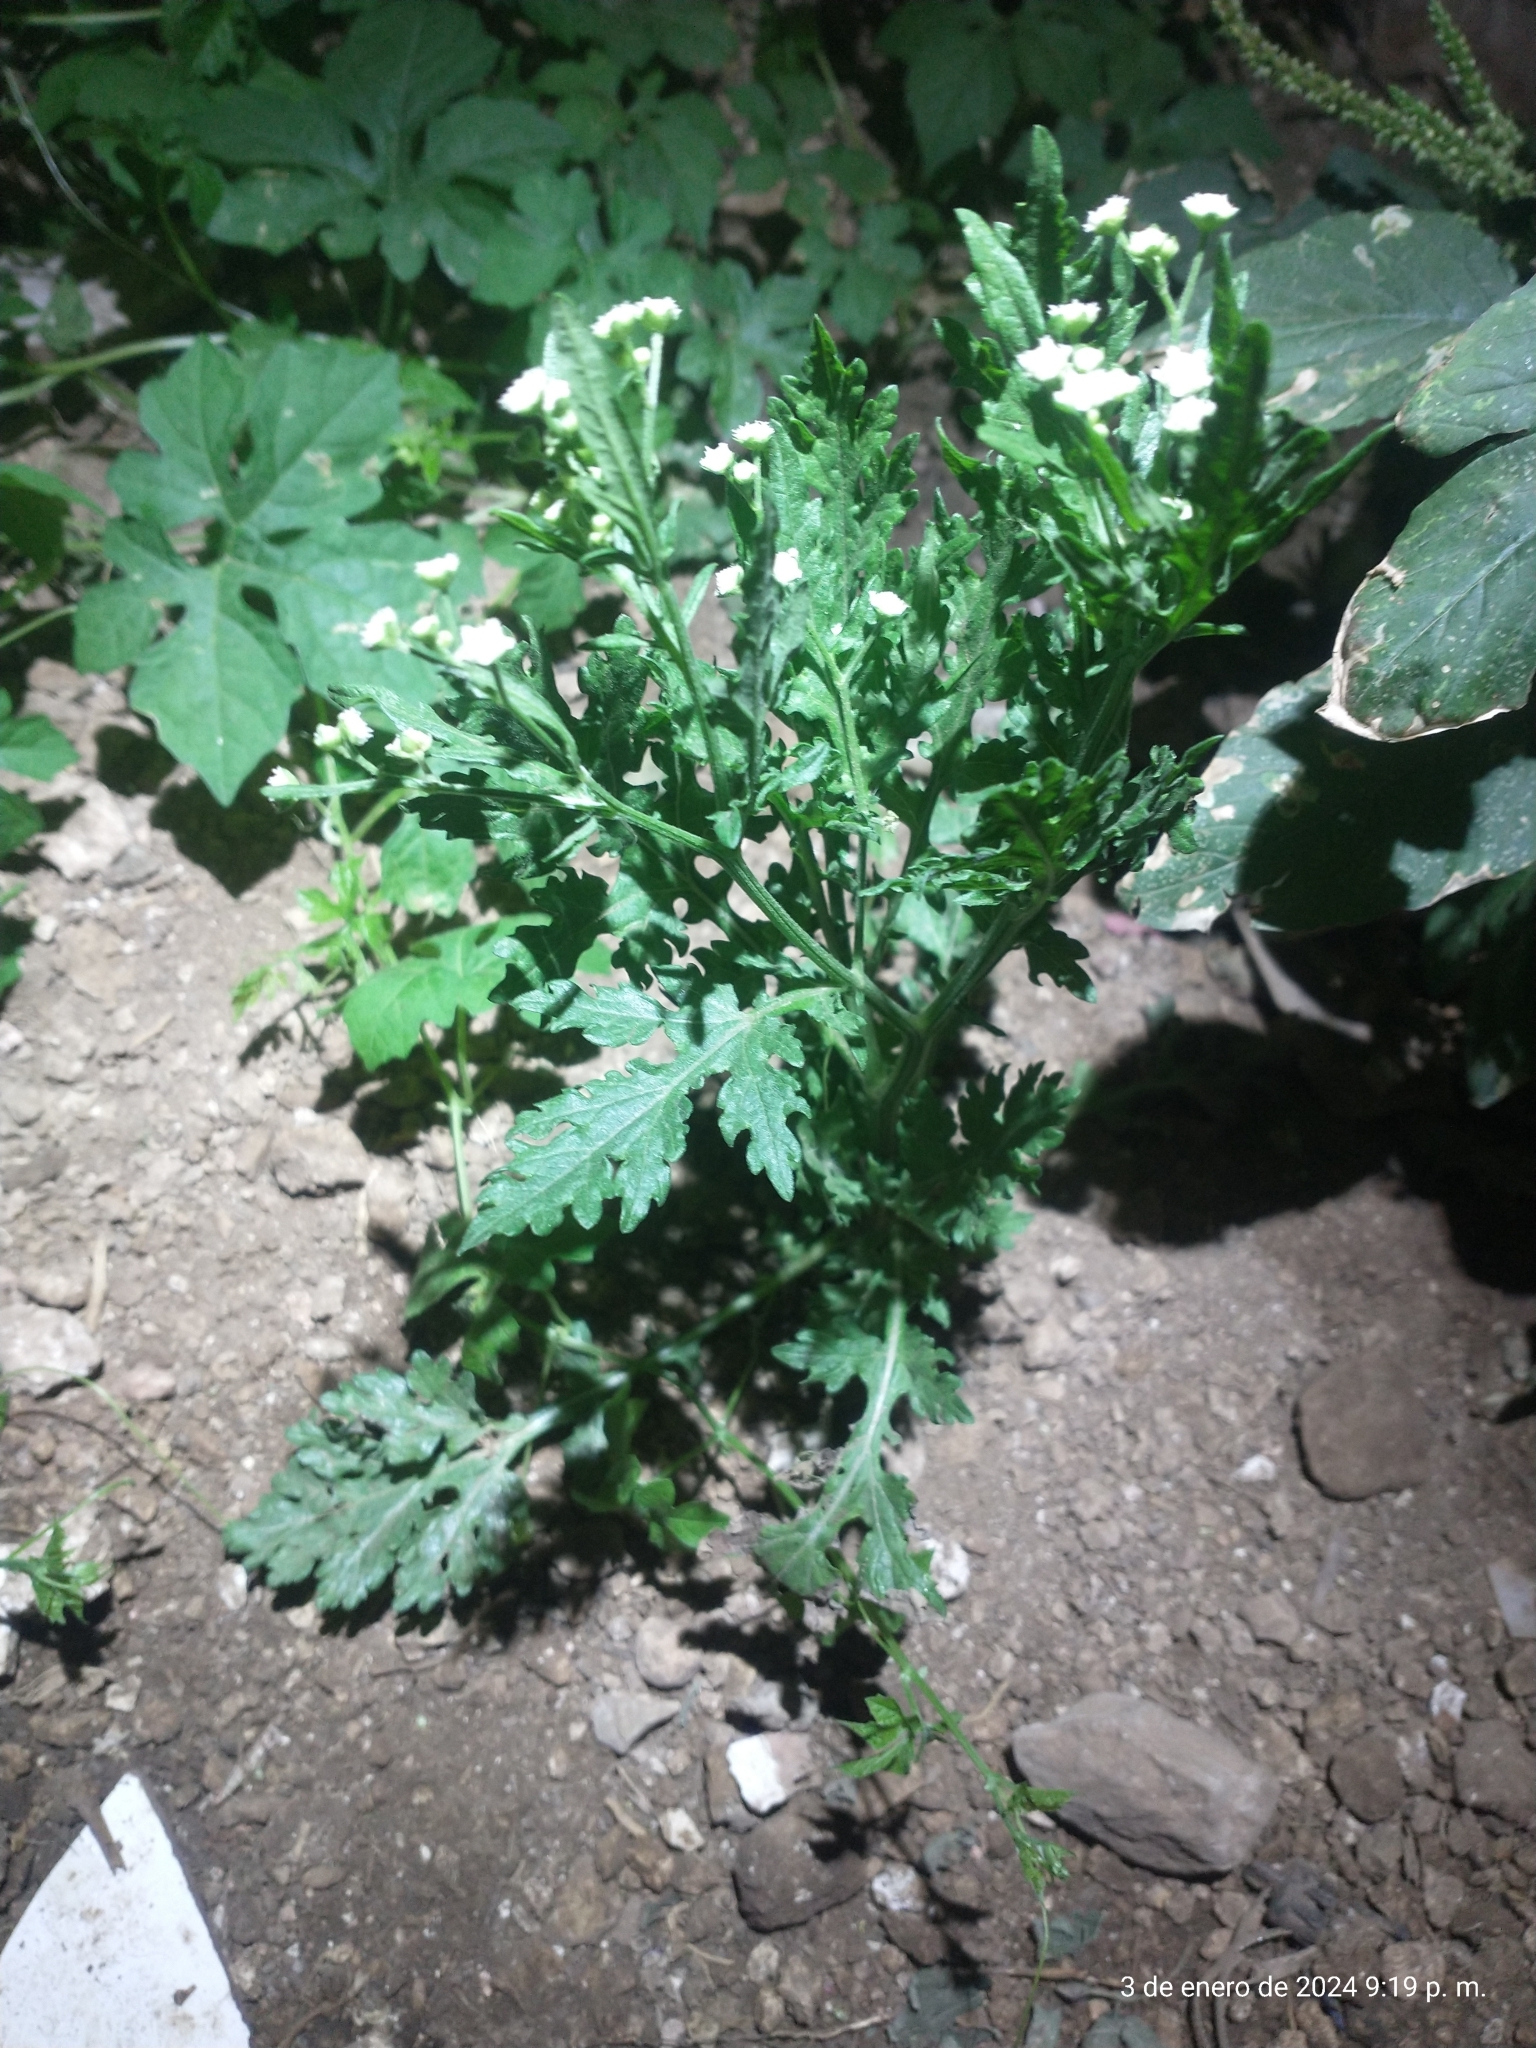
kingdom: Plantae
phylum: Tracheophyta
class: Magnoliopsida
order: Asterales
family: Asteraceae
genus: Parthenium
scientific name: Parthenium hysterophorus
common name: Santa maria feverfew
